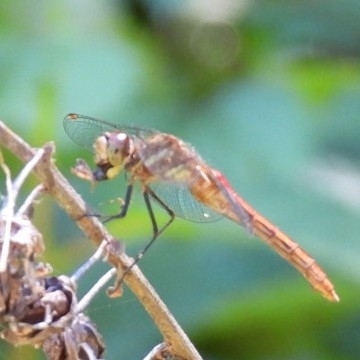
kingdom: Animalia
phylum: Arthropoda
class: Insecta
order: Odonata
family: Libellulidae
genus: Sympetrum
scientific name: Sympetrum pallipes
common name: Striped meadowhawk
